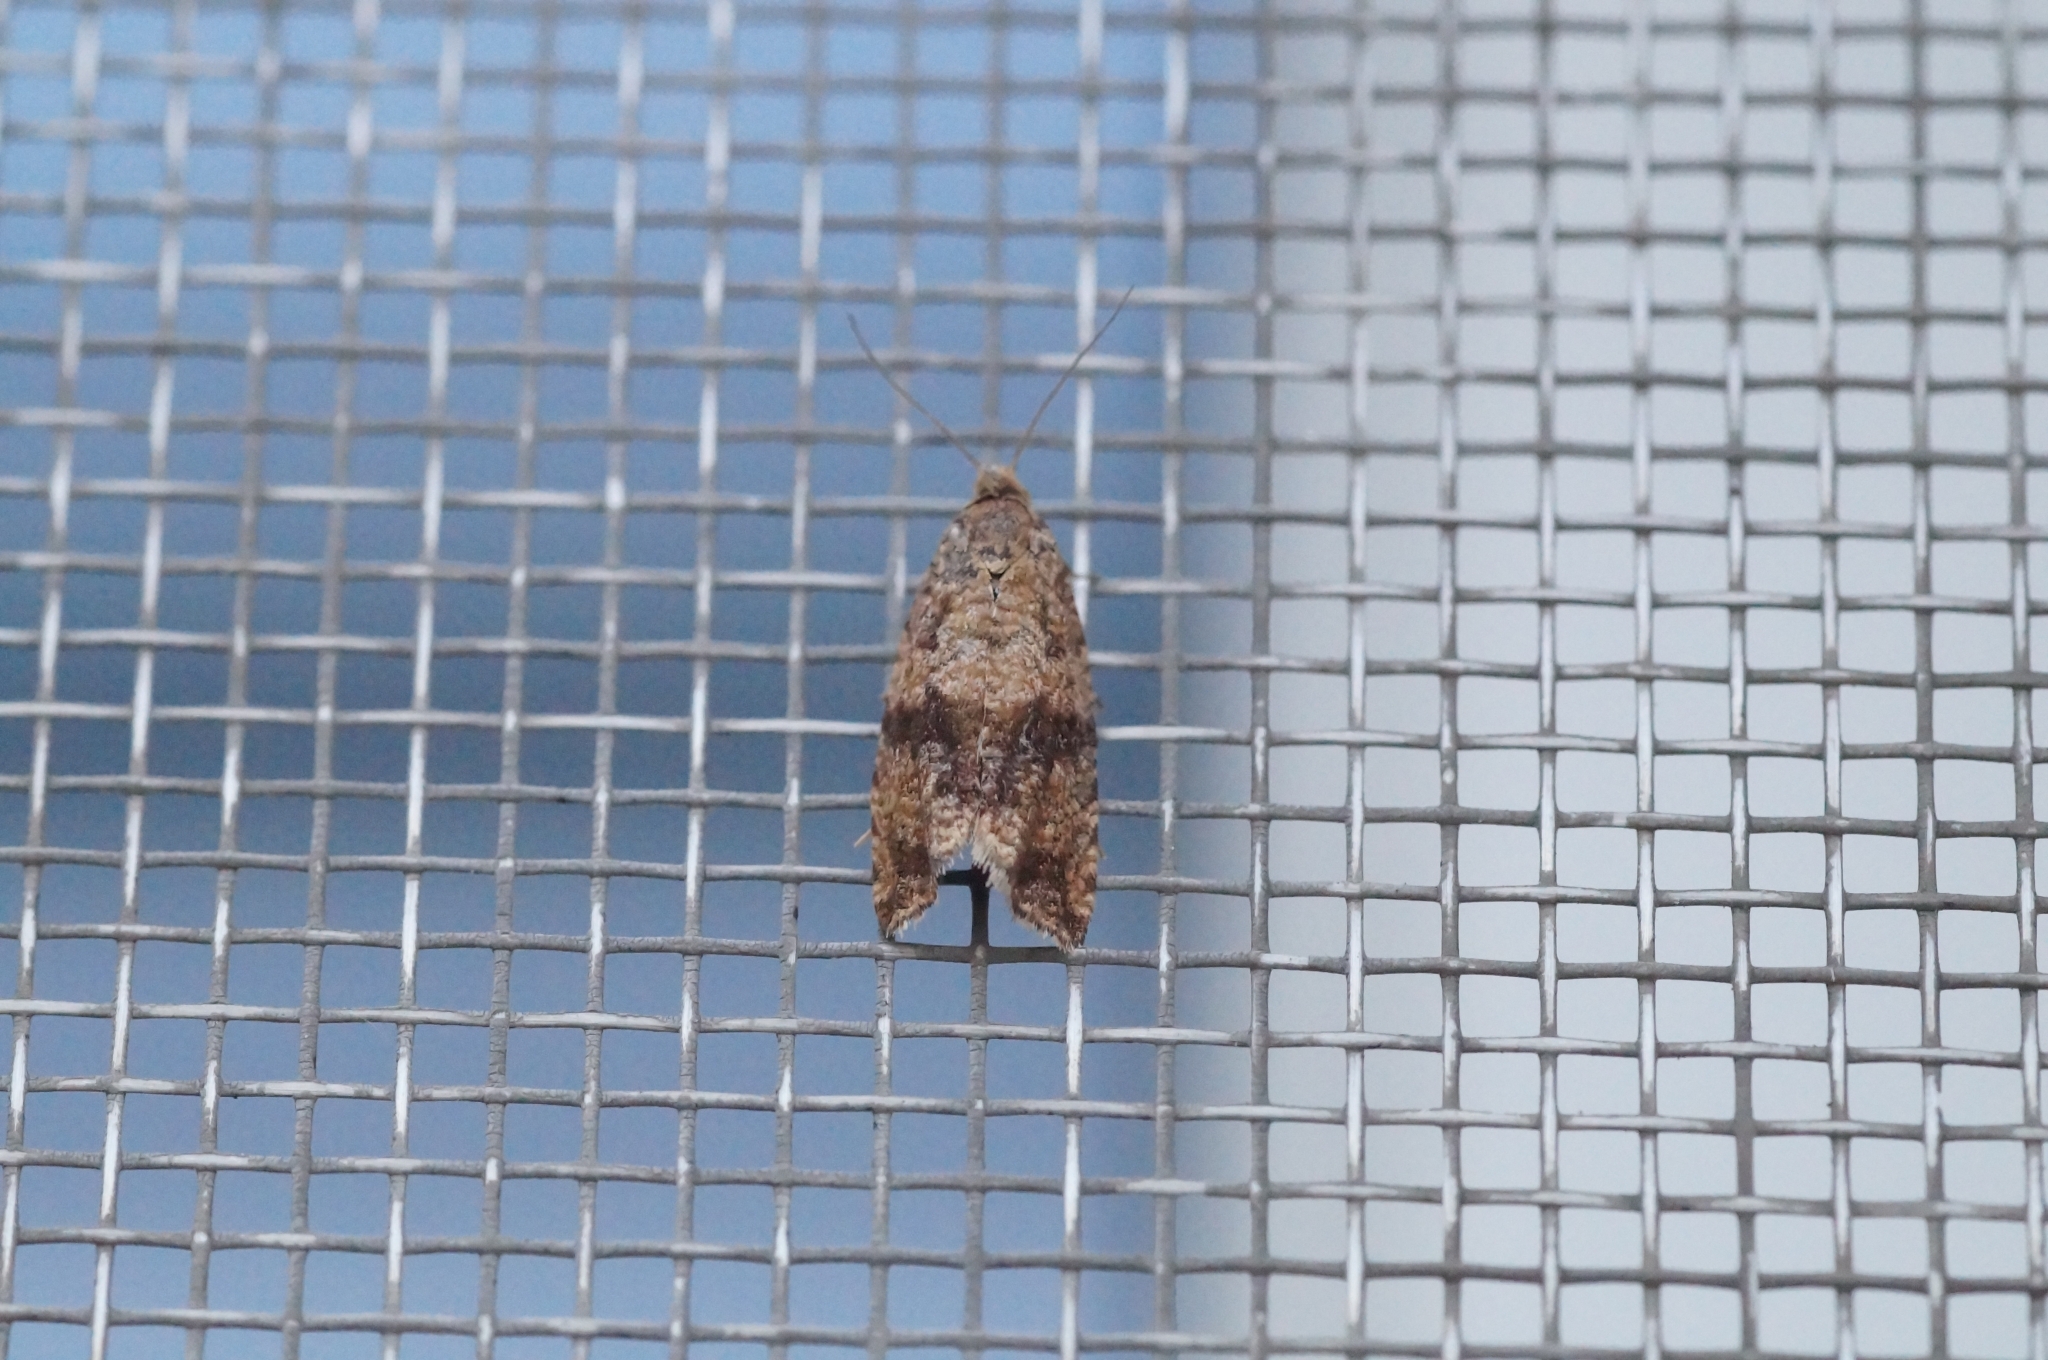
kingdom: Animalia
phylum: Arthropoda
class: Insecta
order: Lepidoptera
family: Tortricidae
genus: Celypha
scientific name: Celypha striana
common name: Barred marble
